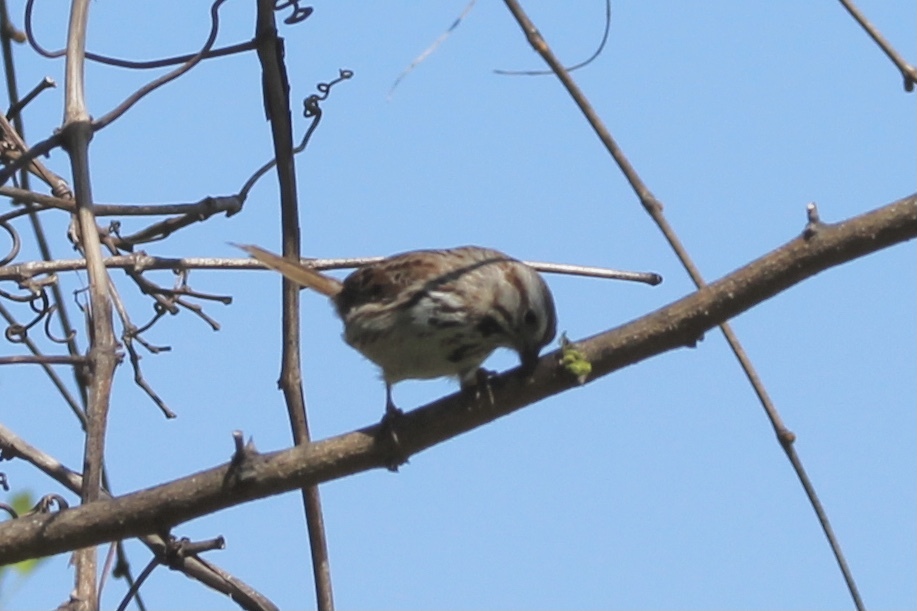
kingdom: Animalia
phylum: Chordata
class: Aves
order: Passeriformes
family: Passerellidae
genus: Melospiza
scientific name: Melospiza melodia
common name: Song sparrow
